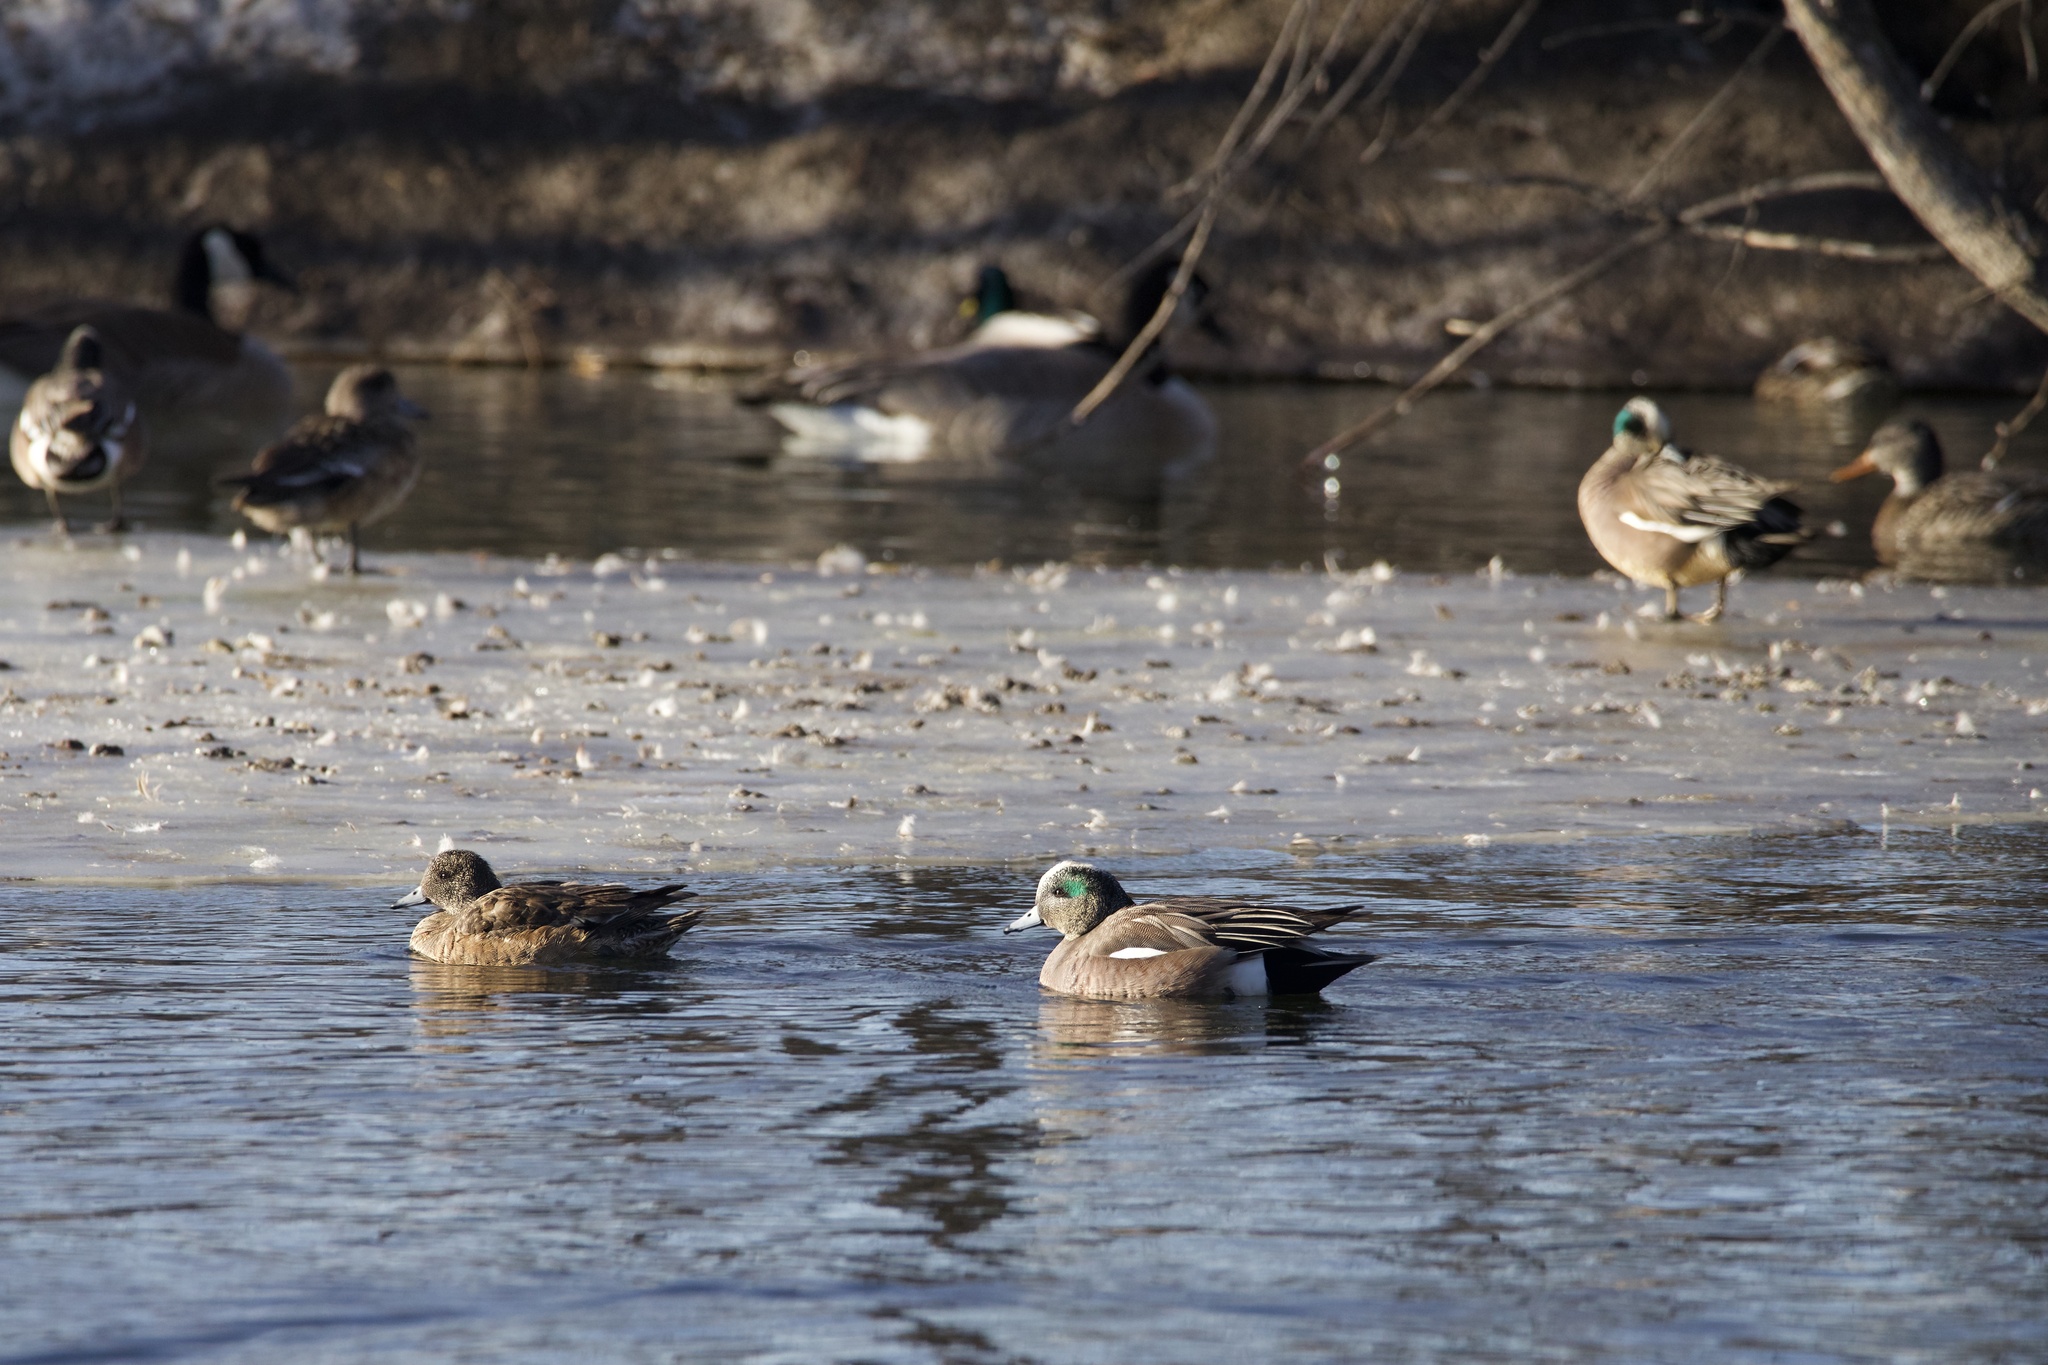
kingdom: Animalia
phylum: Chordata
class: Aves
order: Anseriformes
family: Anatidae
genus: Mareca
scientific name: Mareca americana
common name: American wigeon
